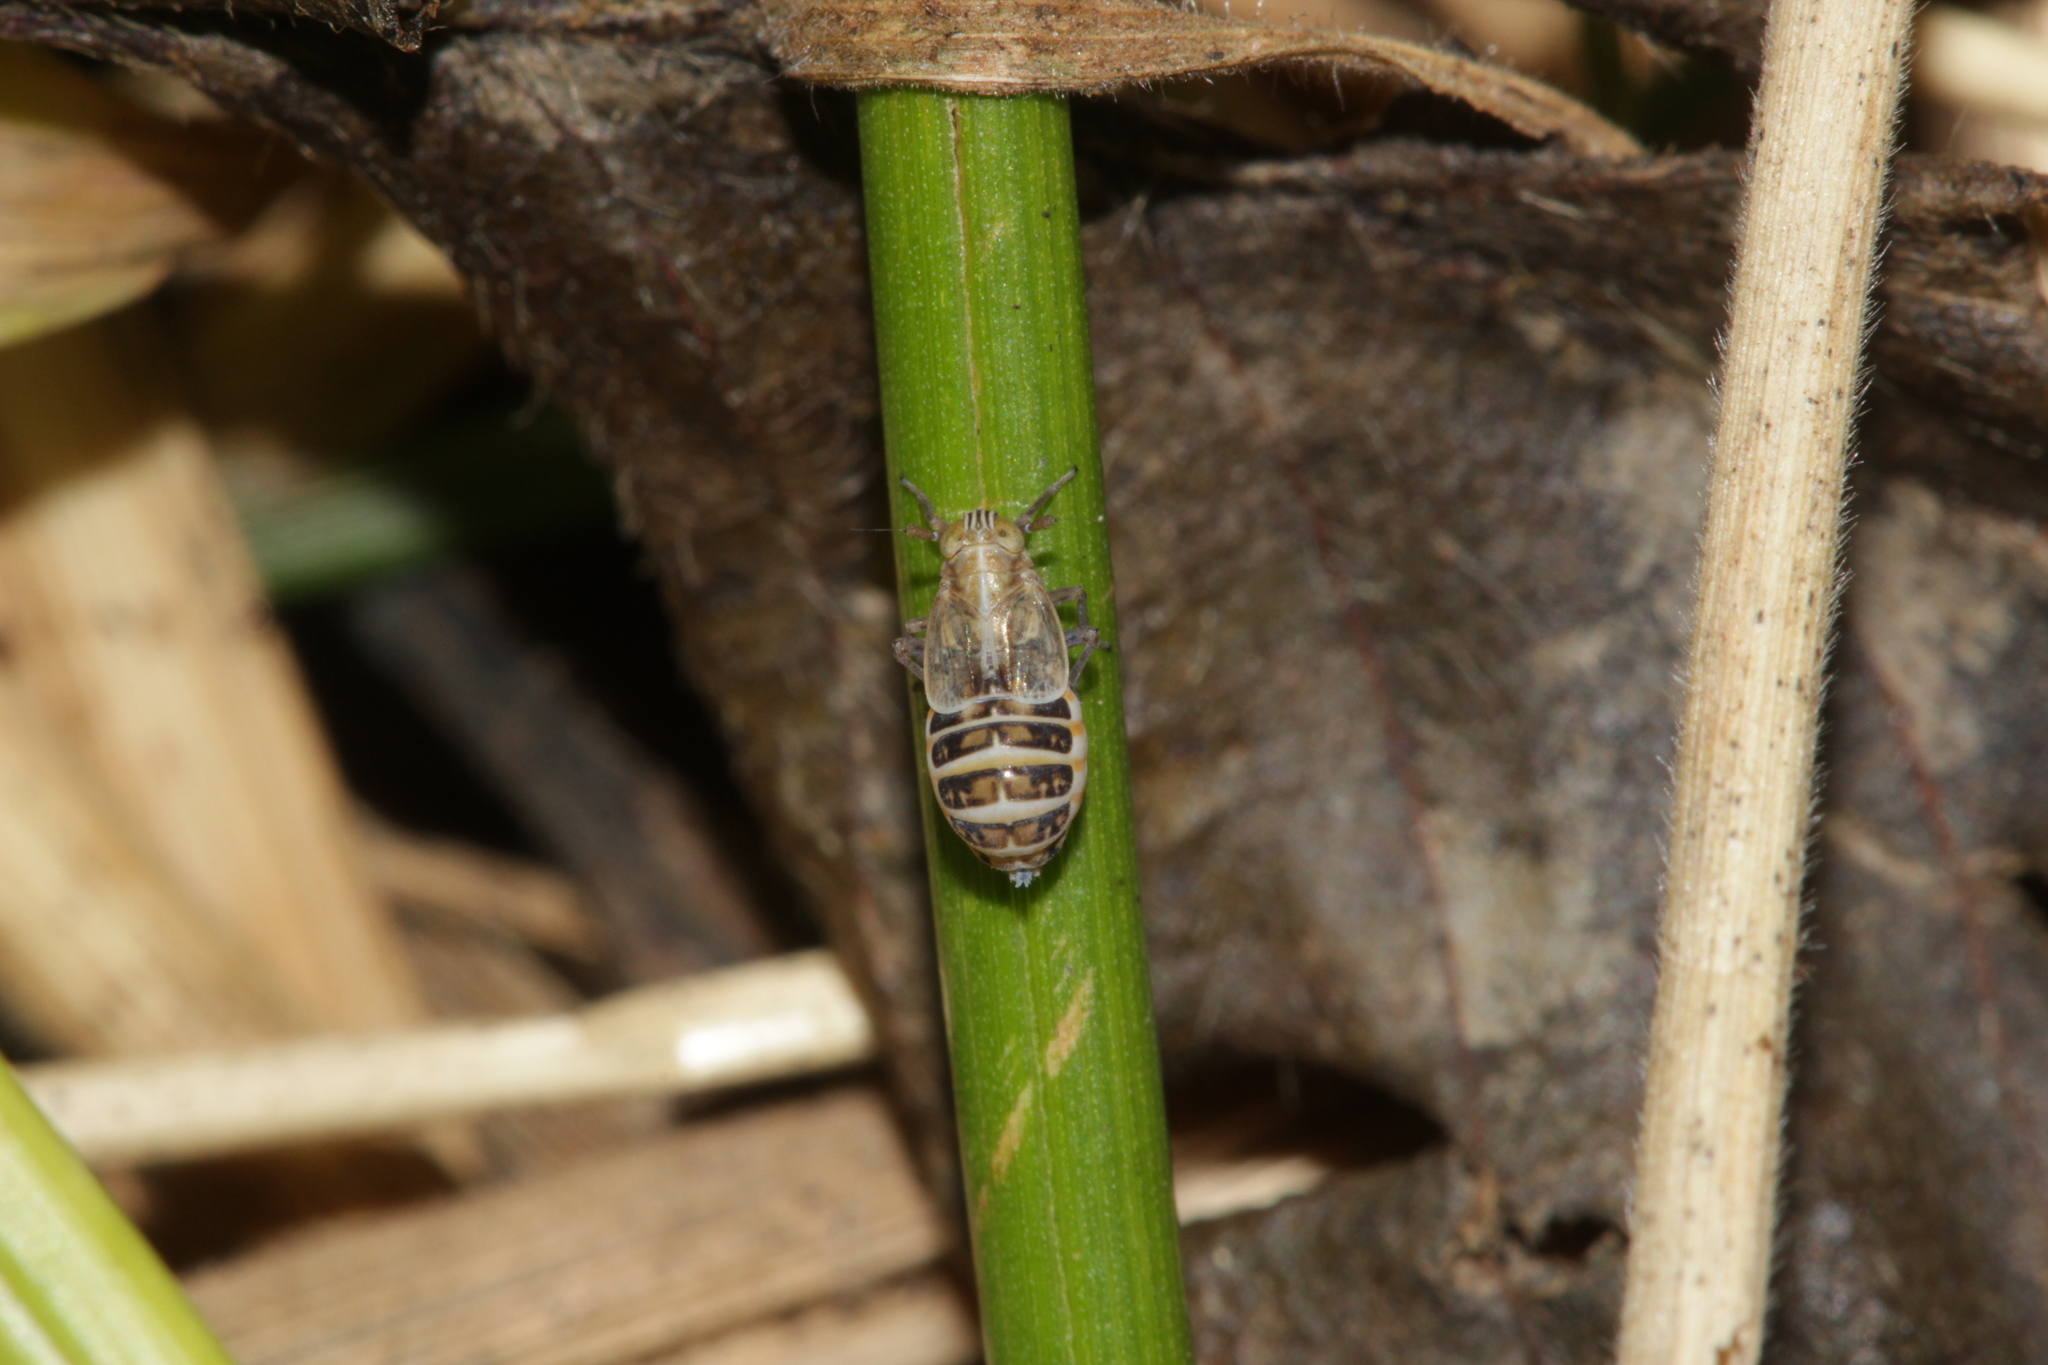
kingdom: Animalia
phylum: Arthropoda
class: Insecta
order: Hemiptera
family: Delphacidae
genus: Dicranotropis
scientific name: Dicranotropis hamata
